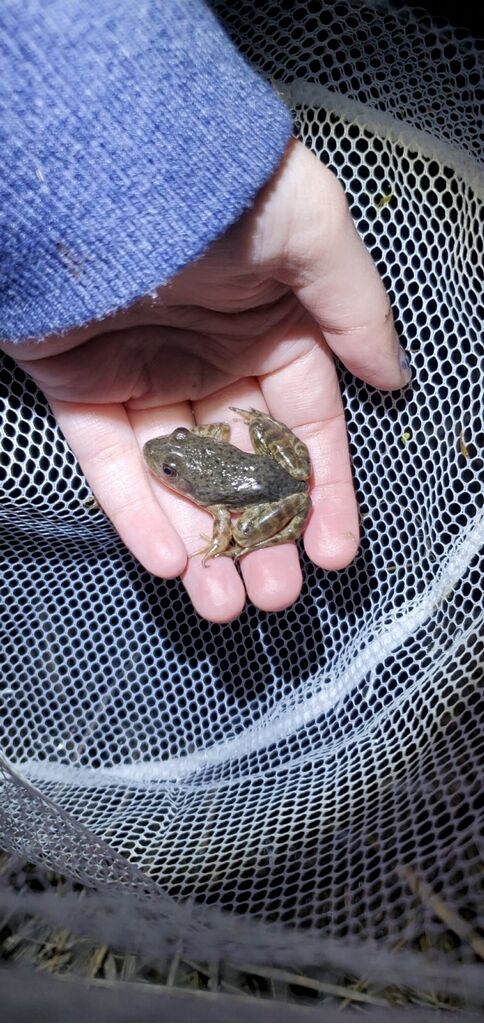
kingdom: Animalia
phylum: Chordata
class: Amphibia
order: Anura
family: Ranidae
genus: Lithobates
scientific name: Lithobates catesbeianus
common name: American bullfrog
